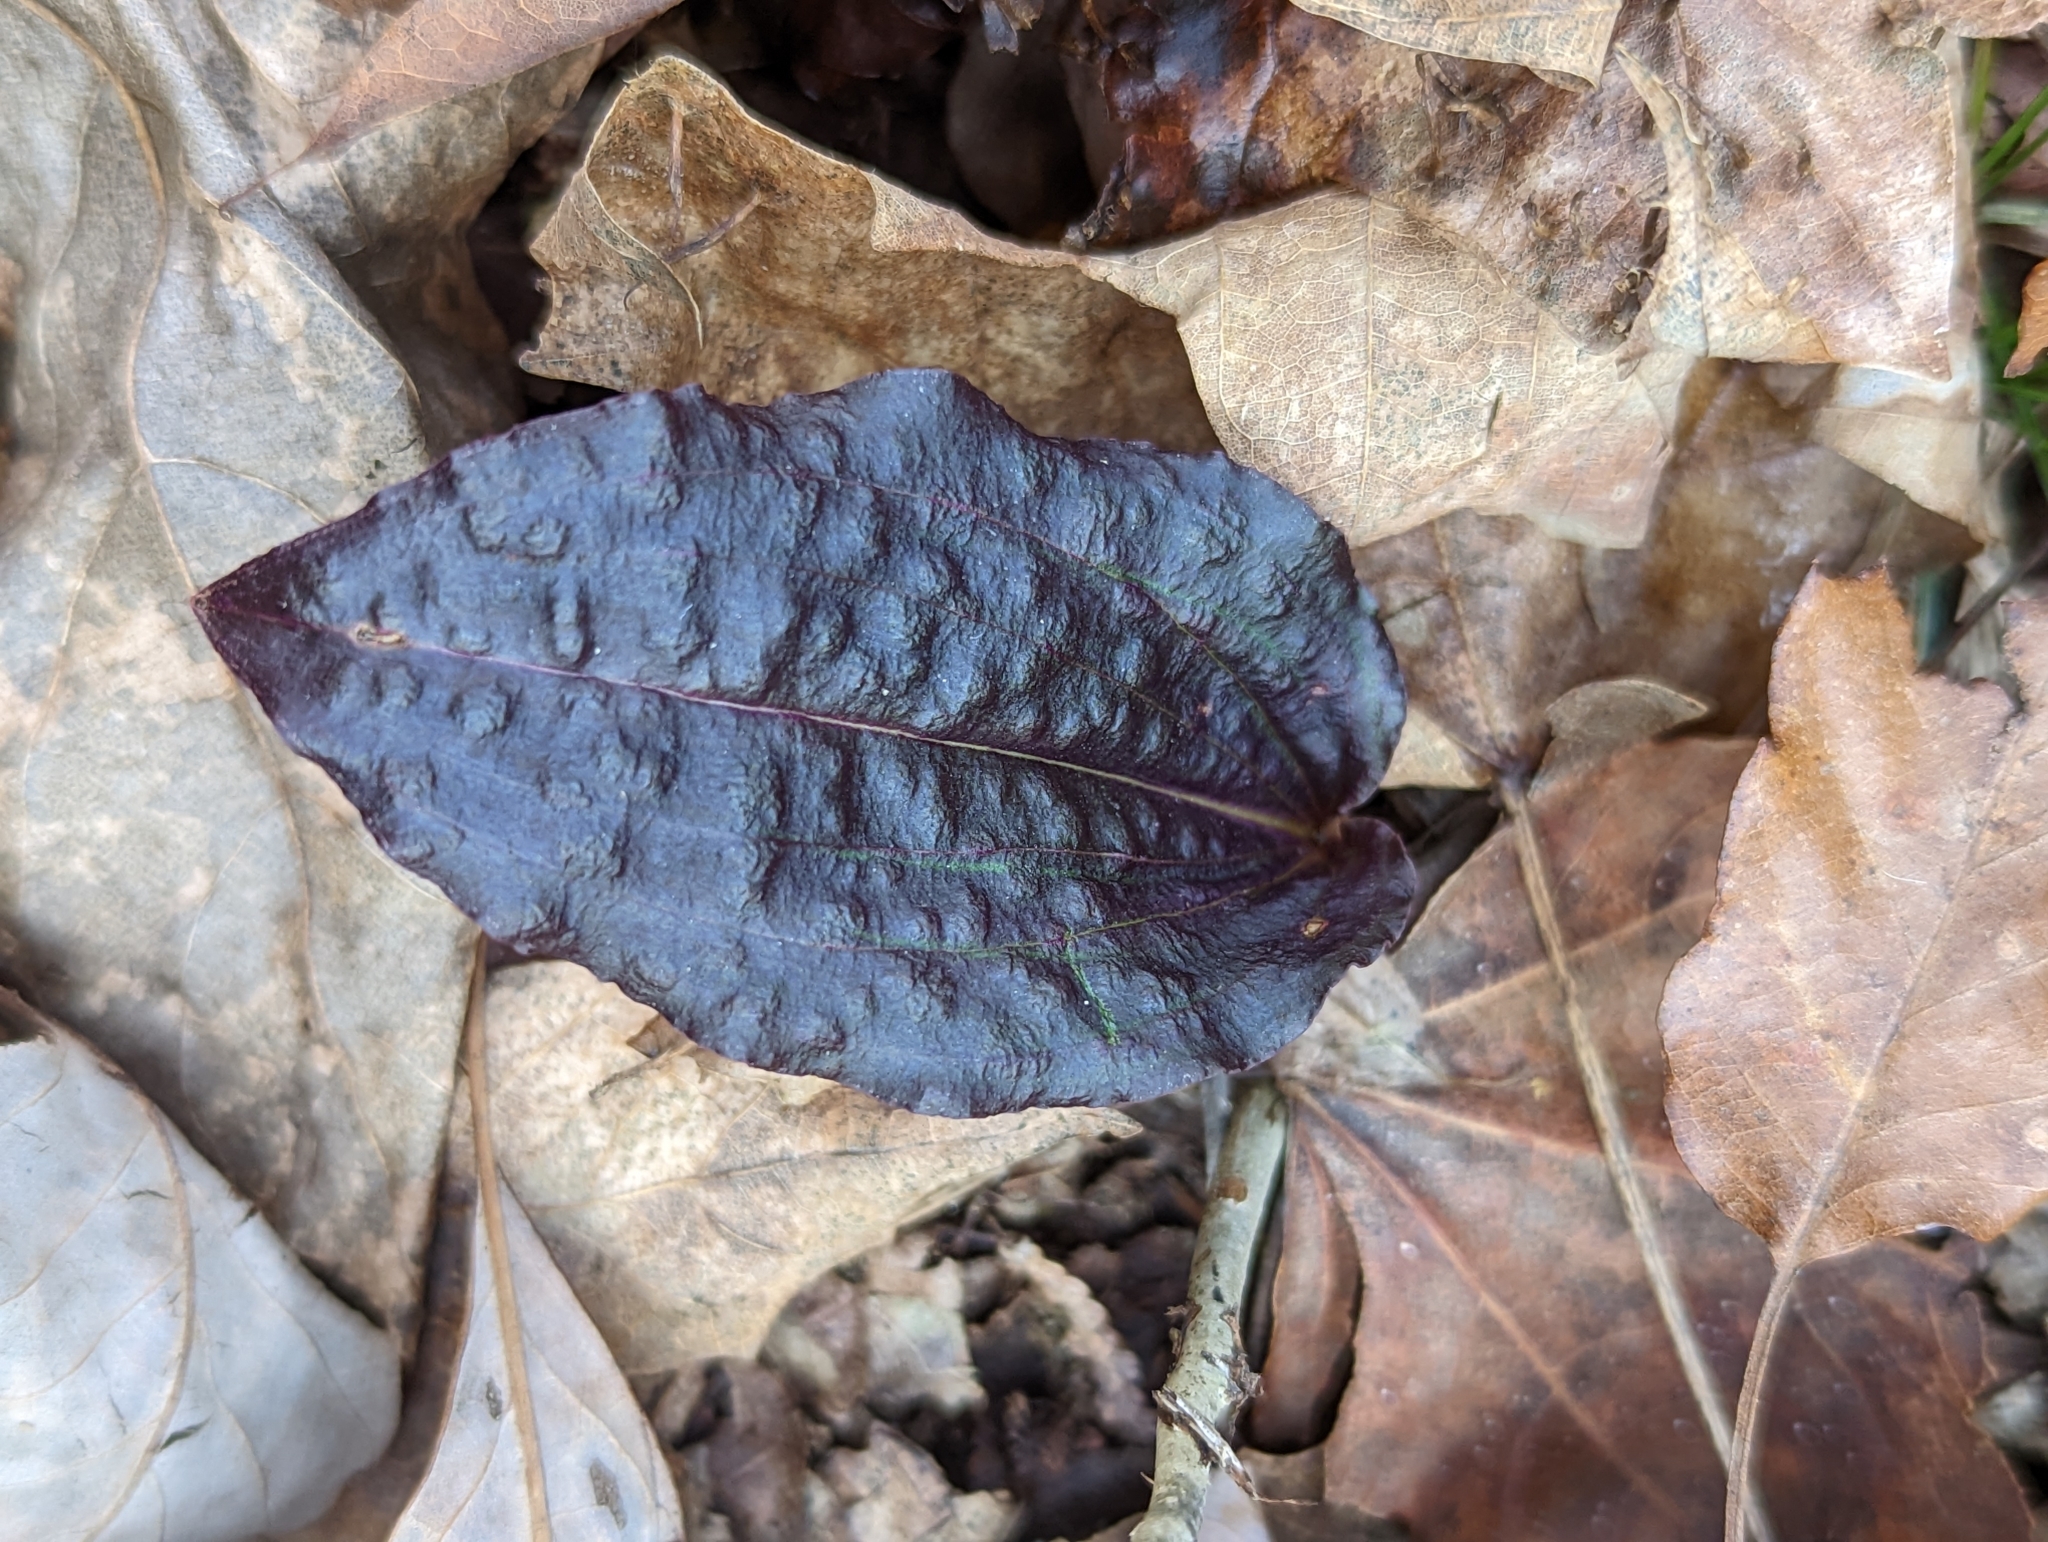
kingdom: Plantae
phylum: Tracheophyta
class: Liliopsida
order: Asparagales
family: Orchidaceae
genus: Tipularia
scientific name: Tipularia discolor
